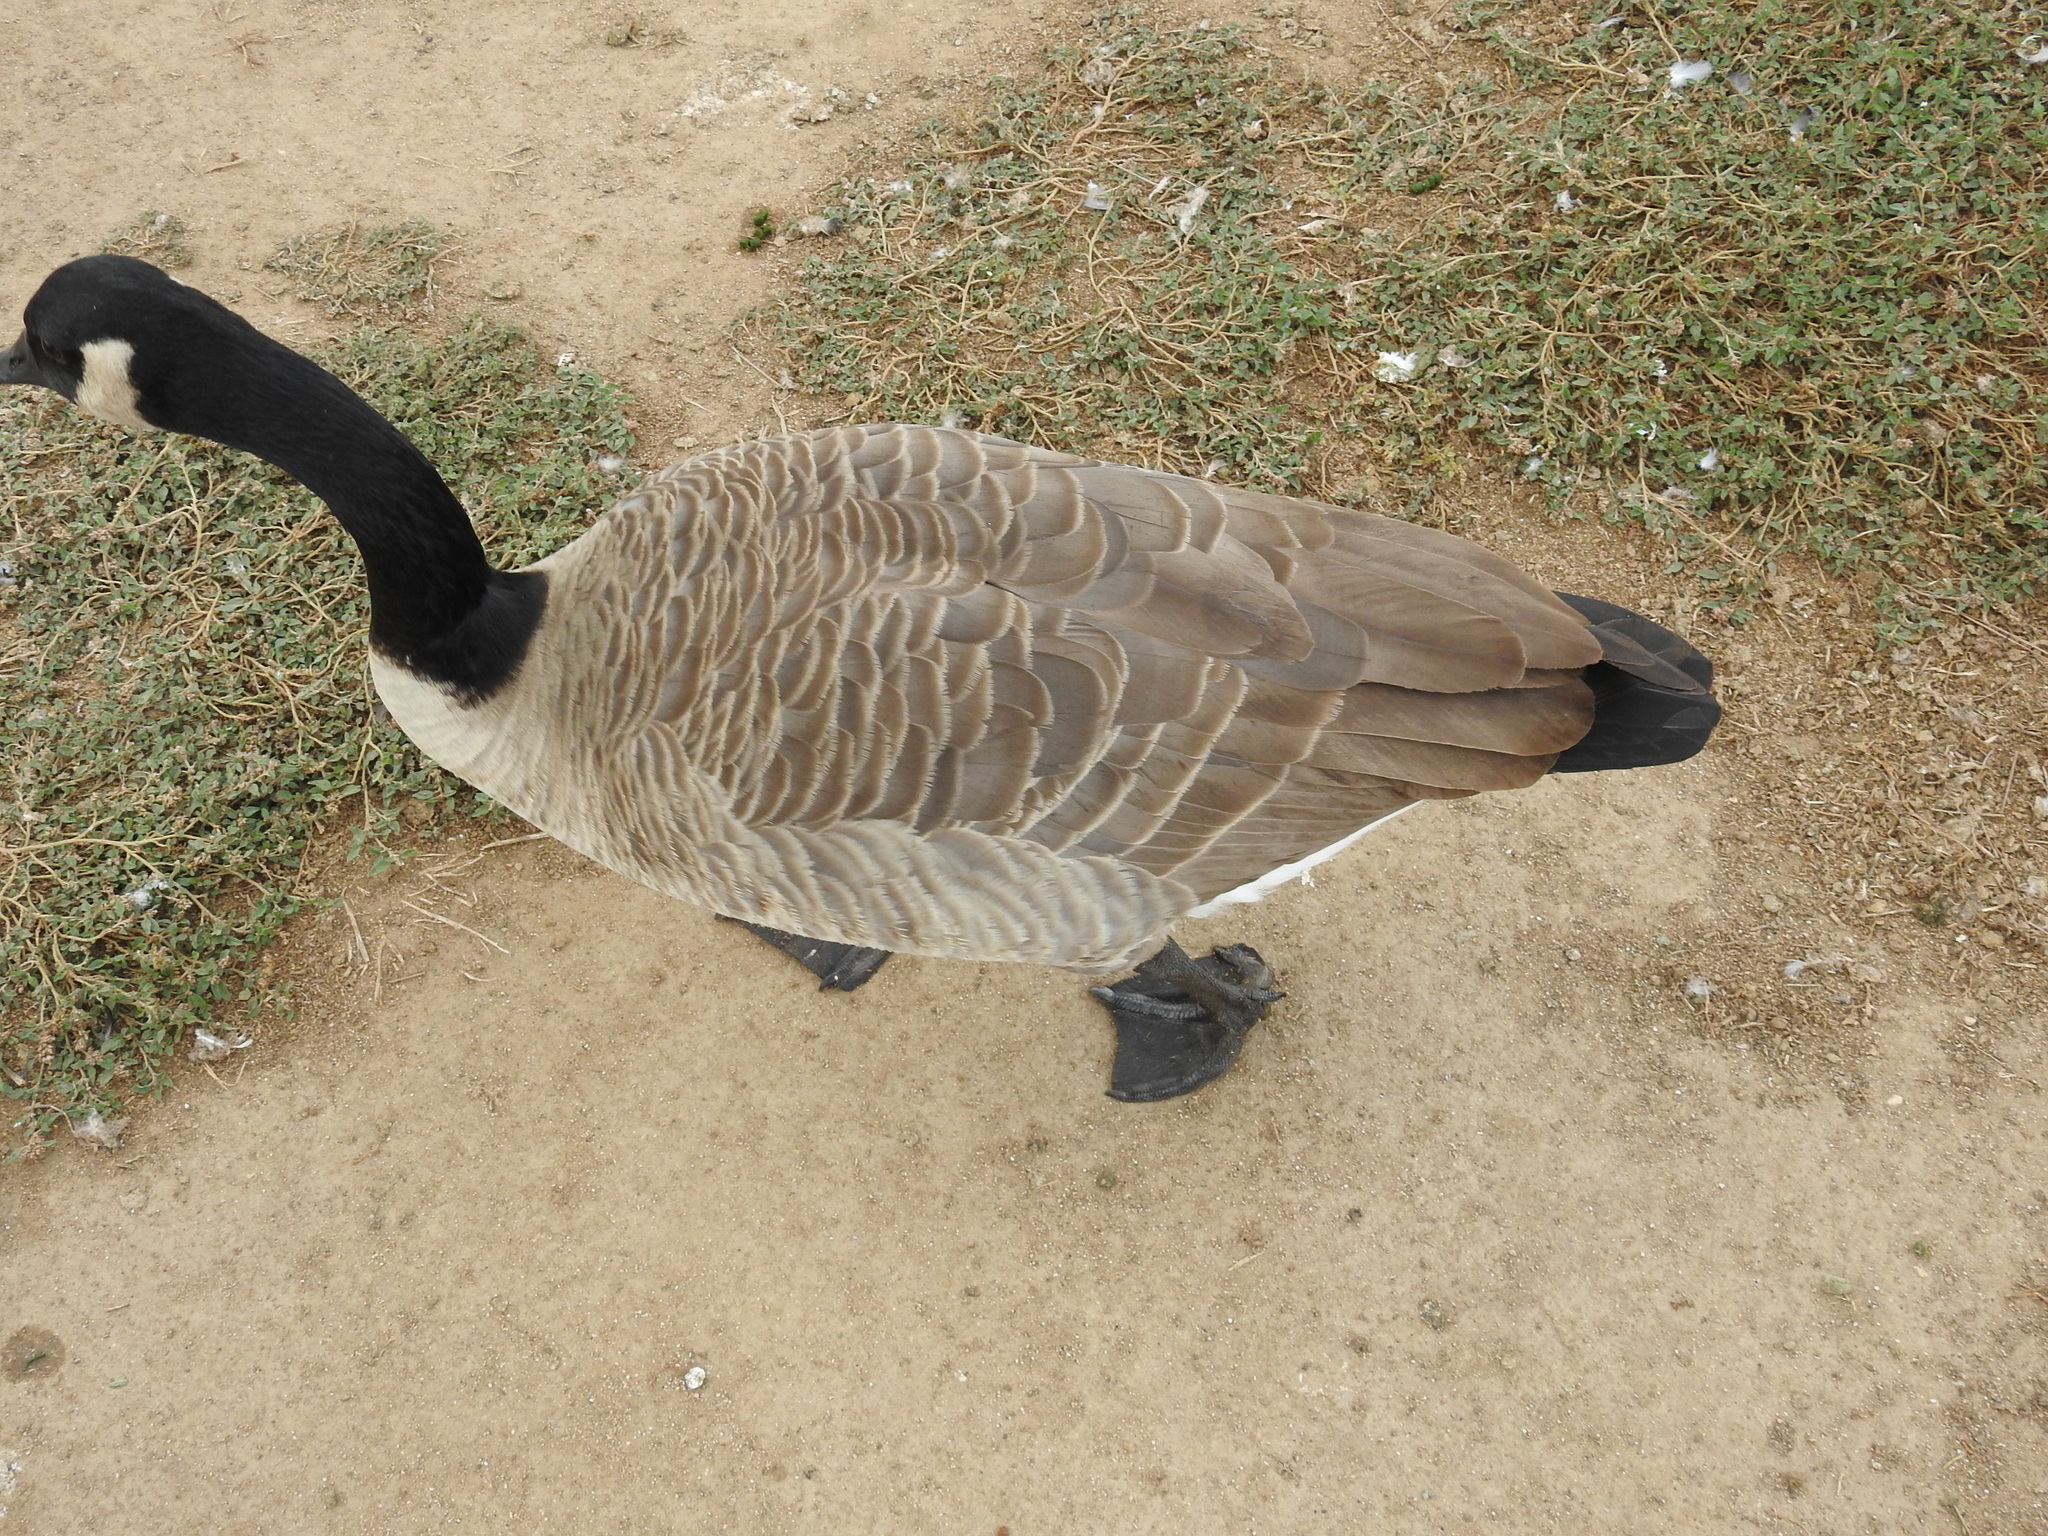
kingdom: Animalia
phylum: Chordata
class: Aves
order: Anseriformes
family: Anatidae
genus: Branta
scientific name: Branta canadensis
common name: Canada goose
